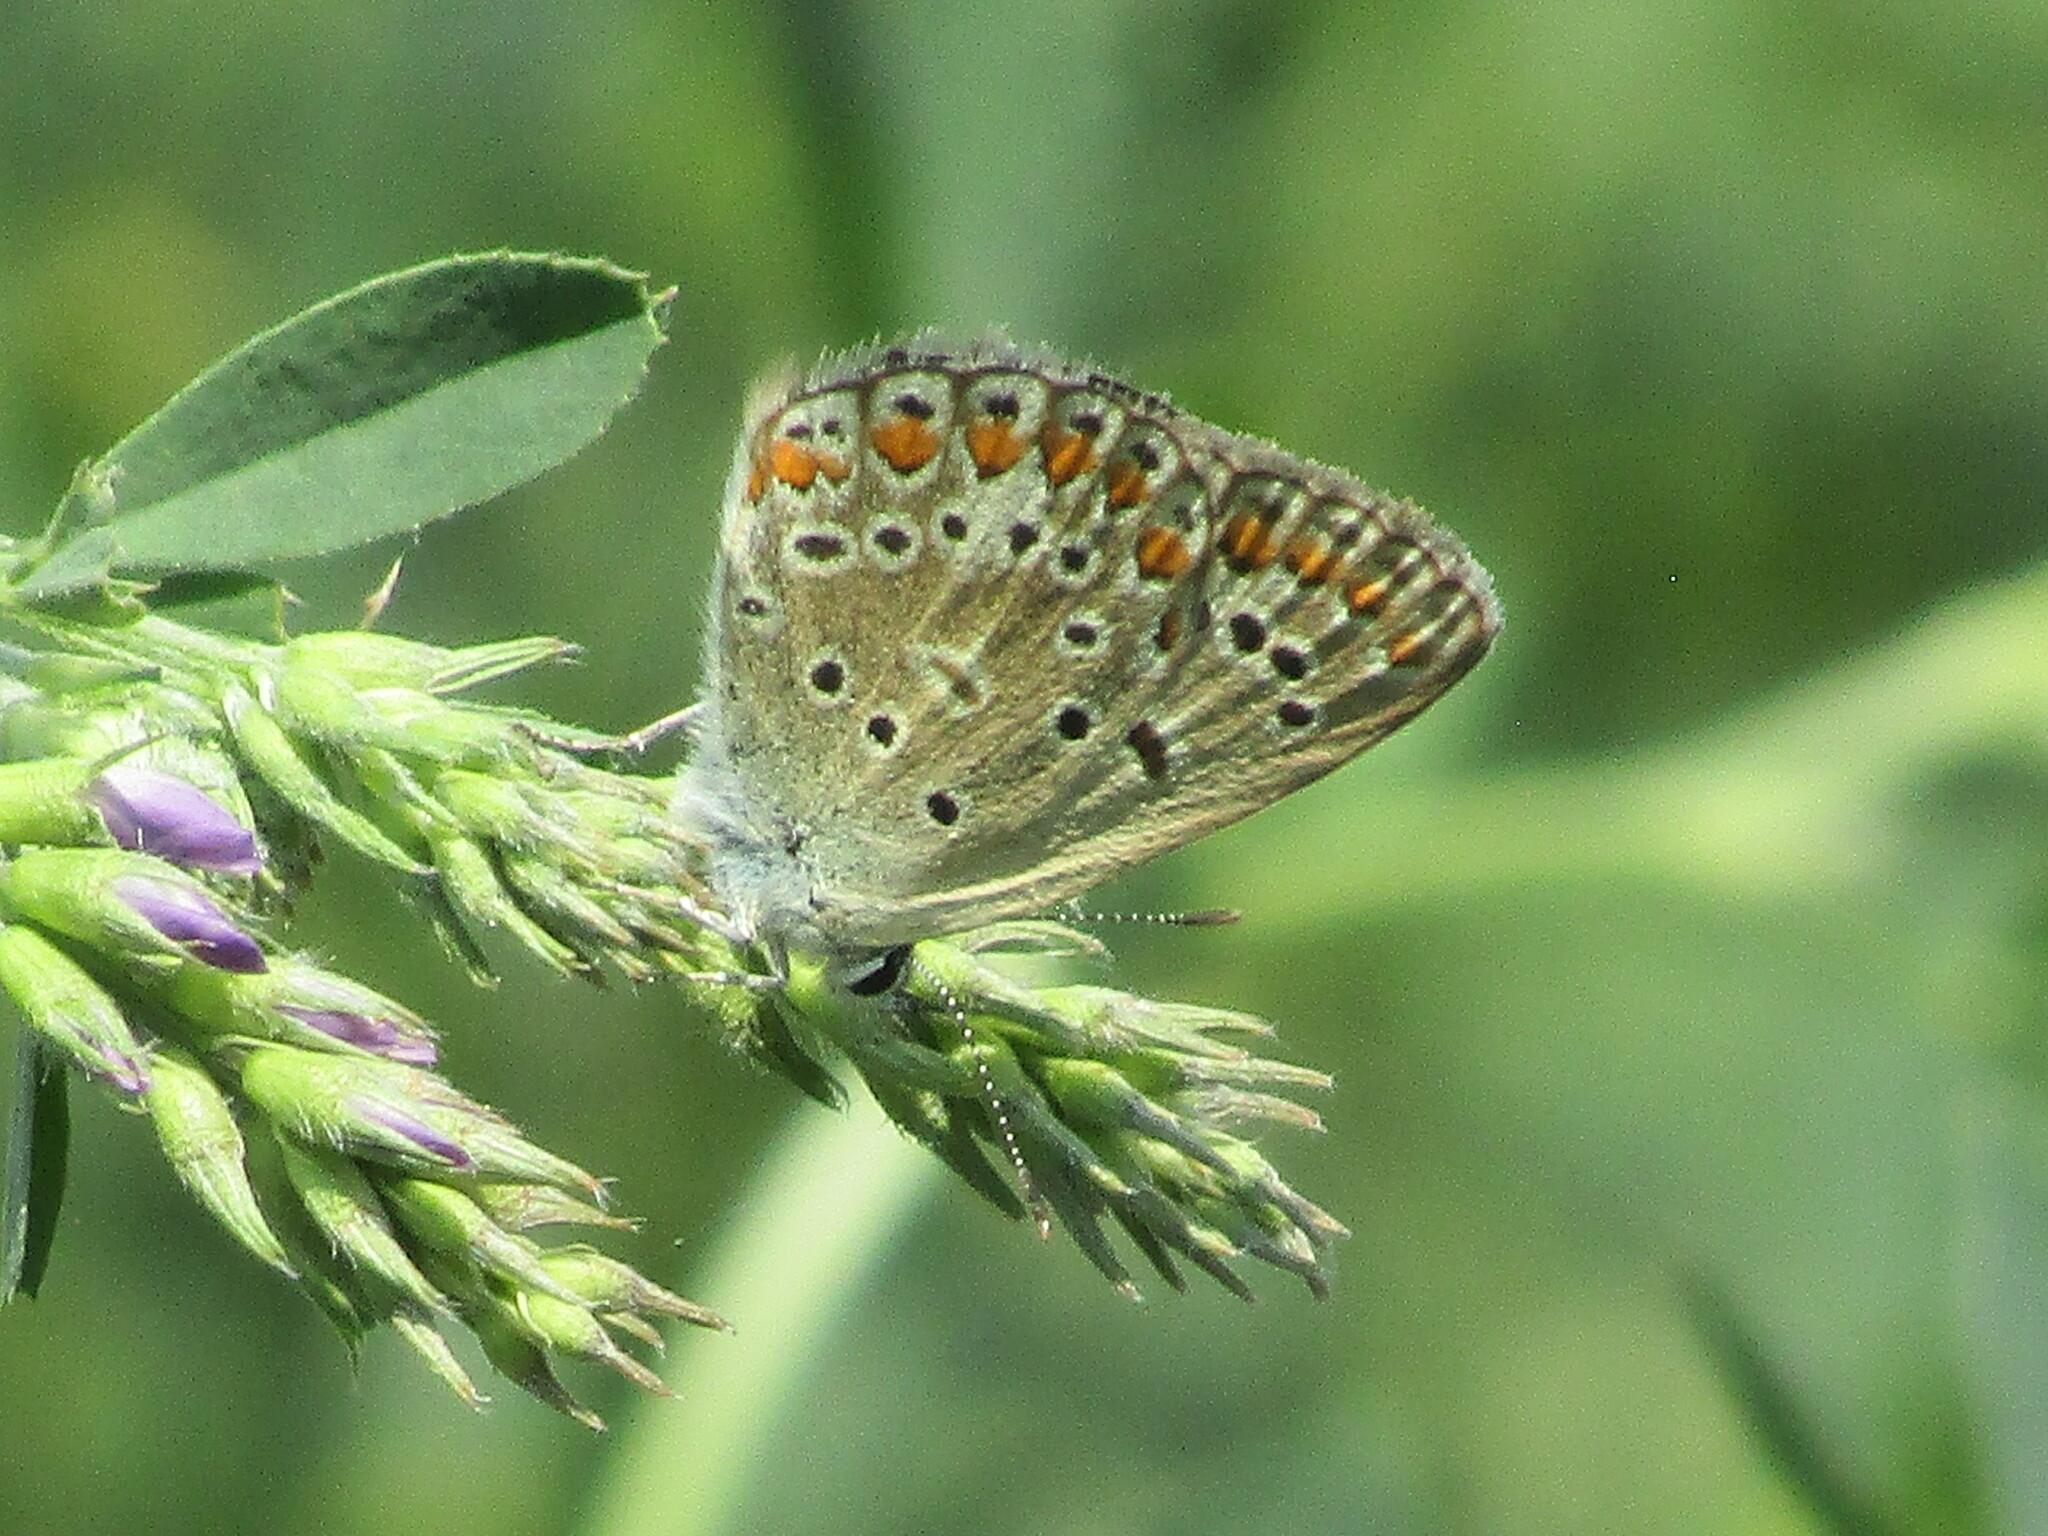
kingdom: Animalia
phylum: Arthropoda
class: Insecta
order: Lepidoptera
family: Lycaenidae
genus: Polyommatus
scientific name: Polyommatus icarus
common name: Common blue
